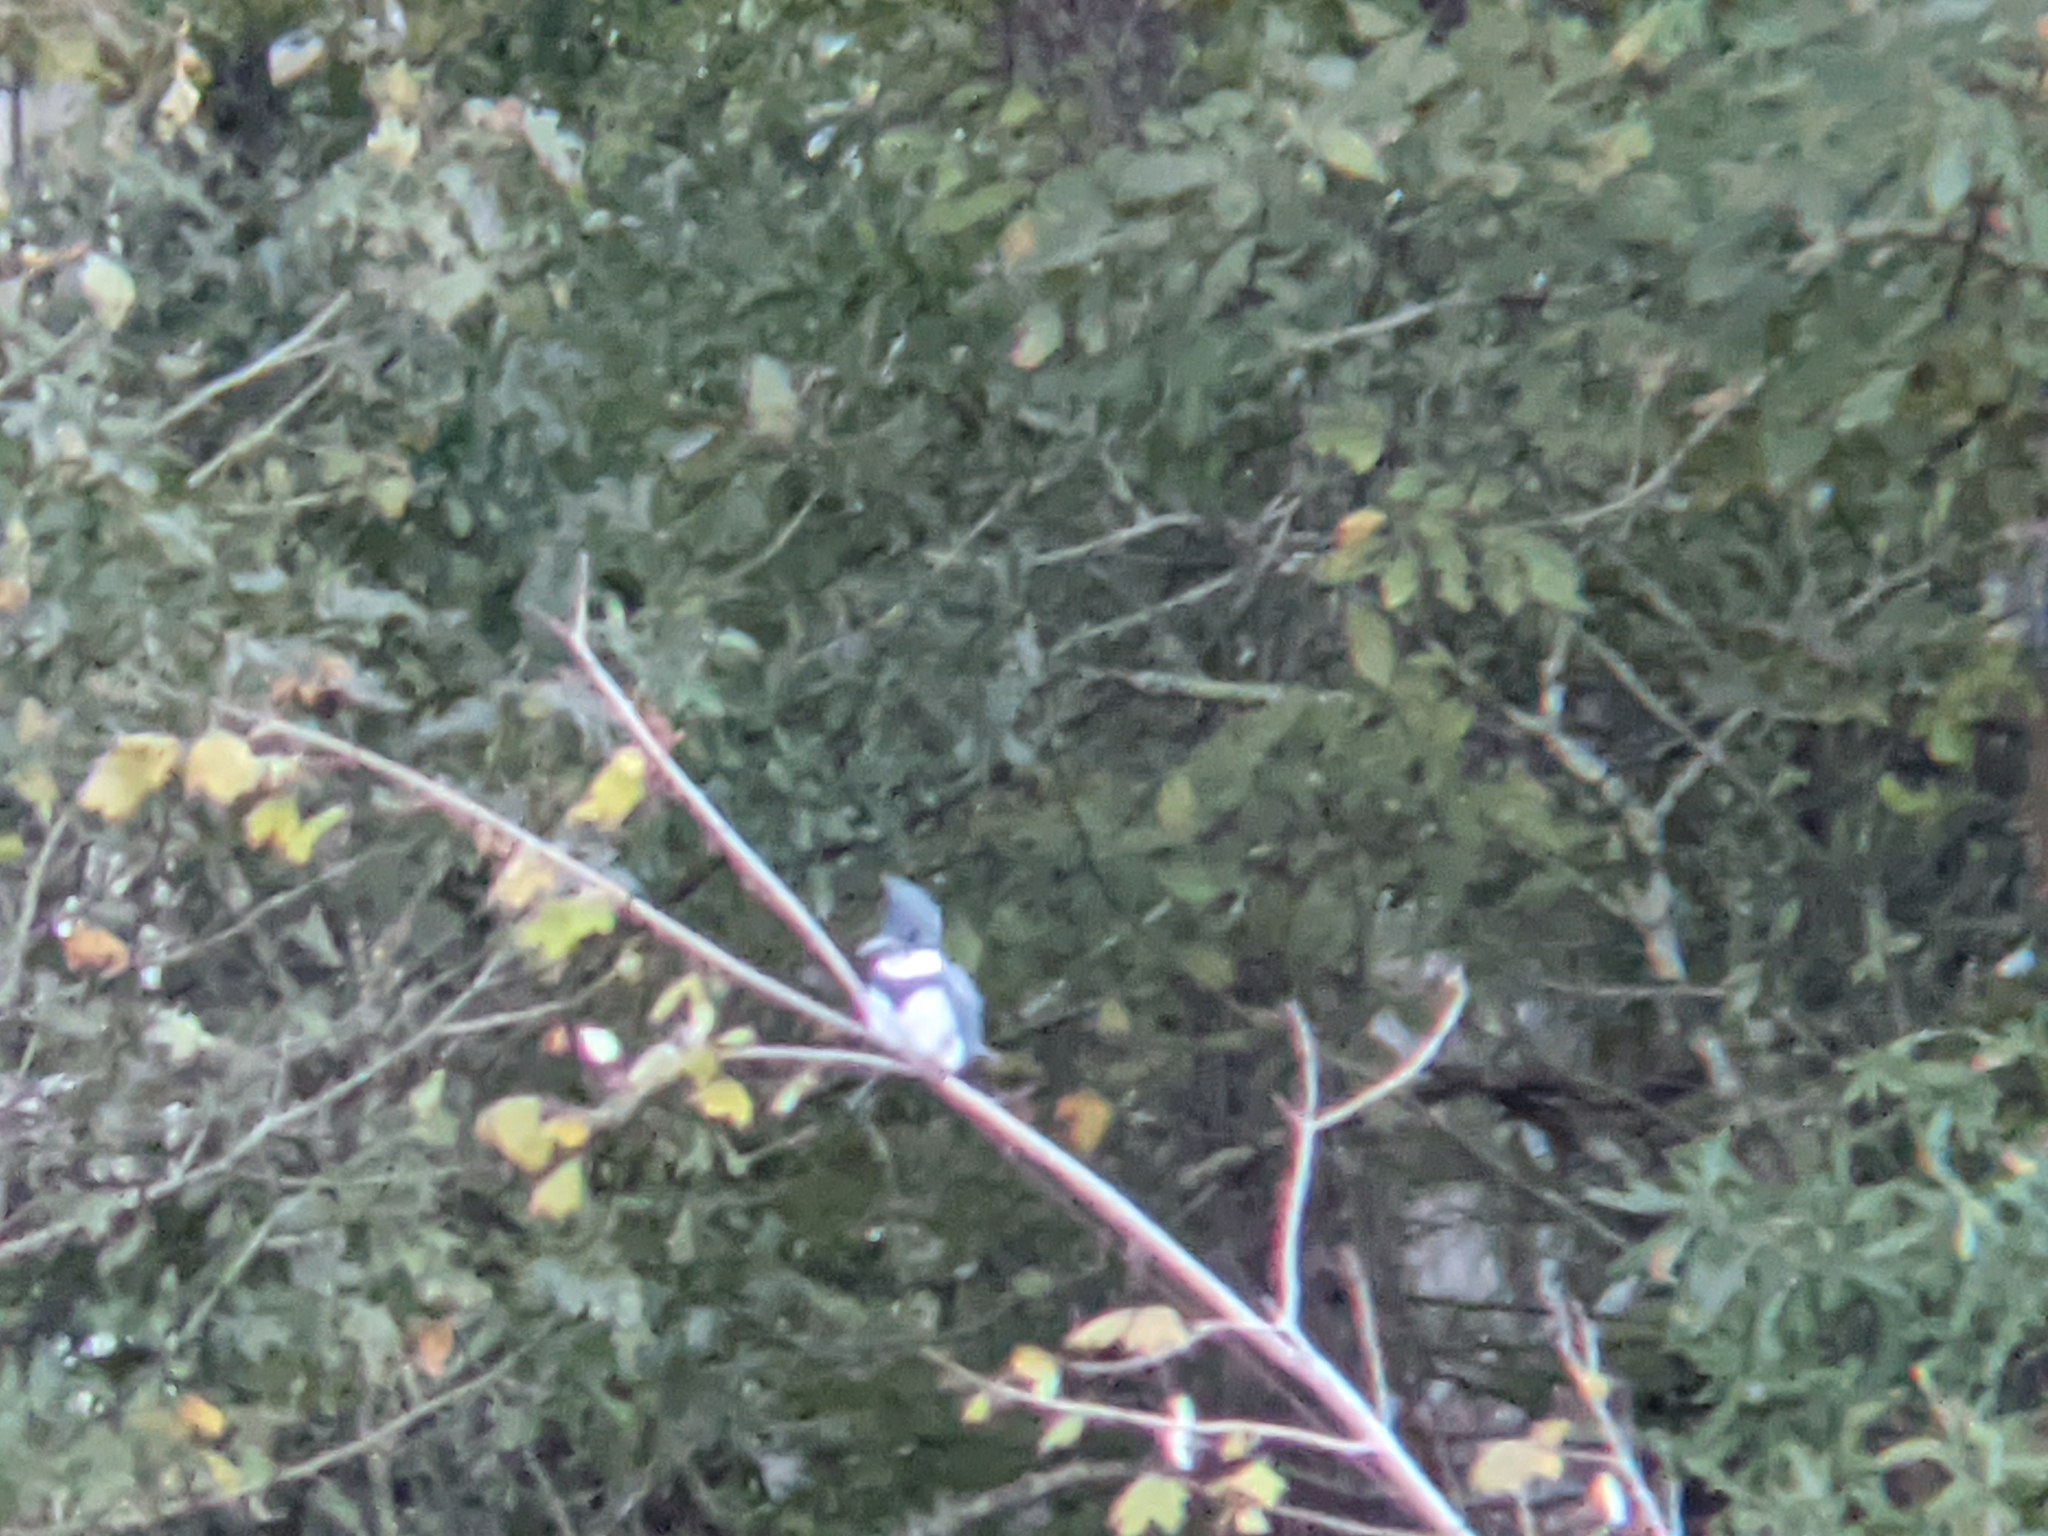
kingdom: Animalia
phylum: Chordata
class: Aves
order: Coraciiformes
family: Alcedinidae
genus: Megaceryle
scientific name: Megaceryle alcyon
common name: Belted kingfisher
